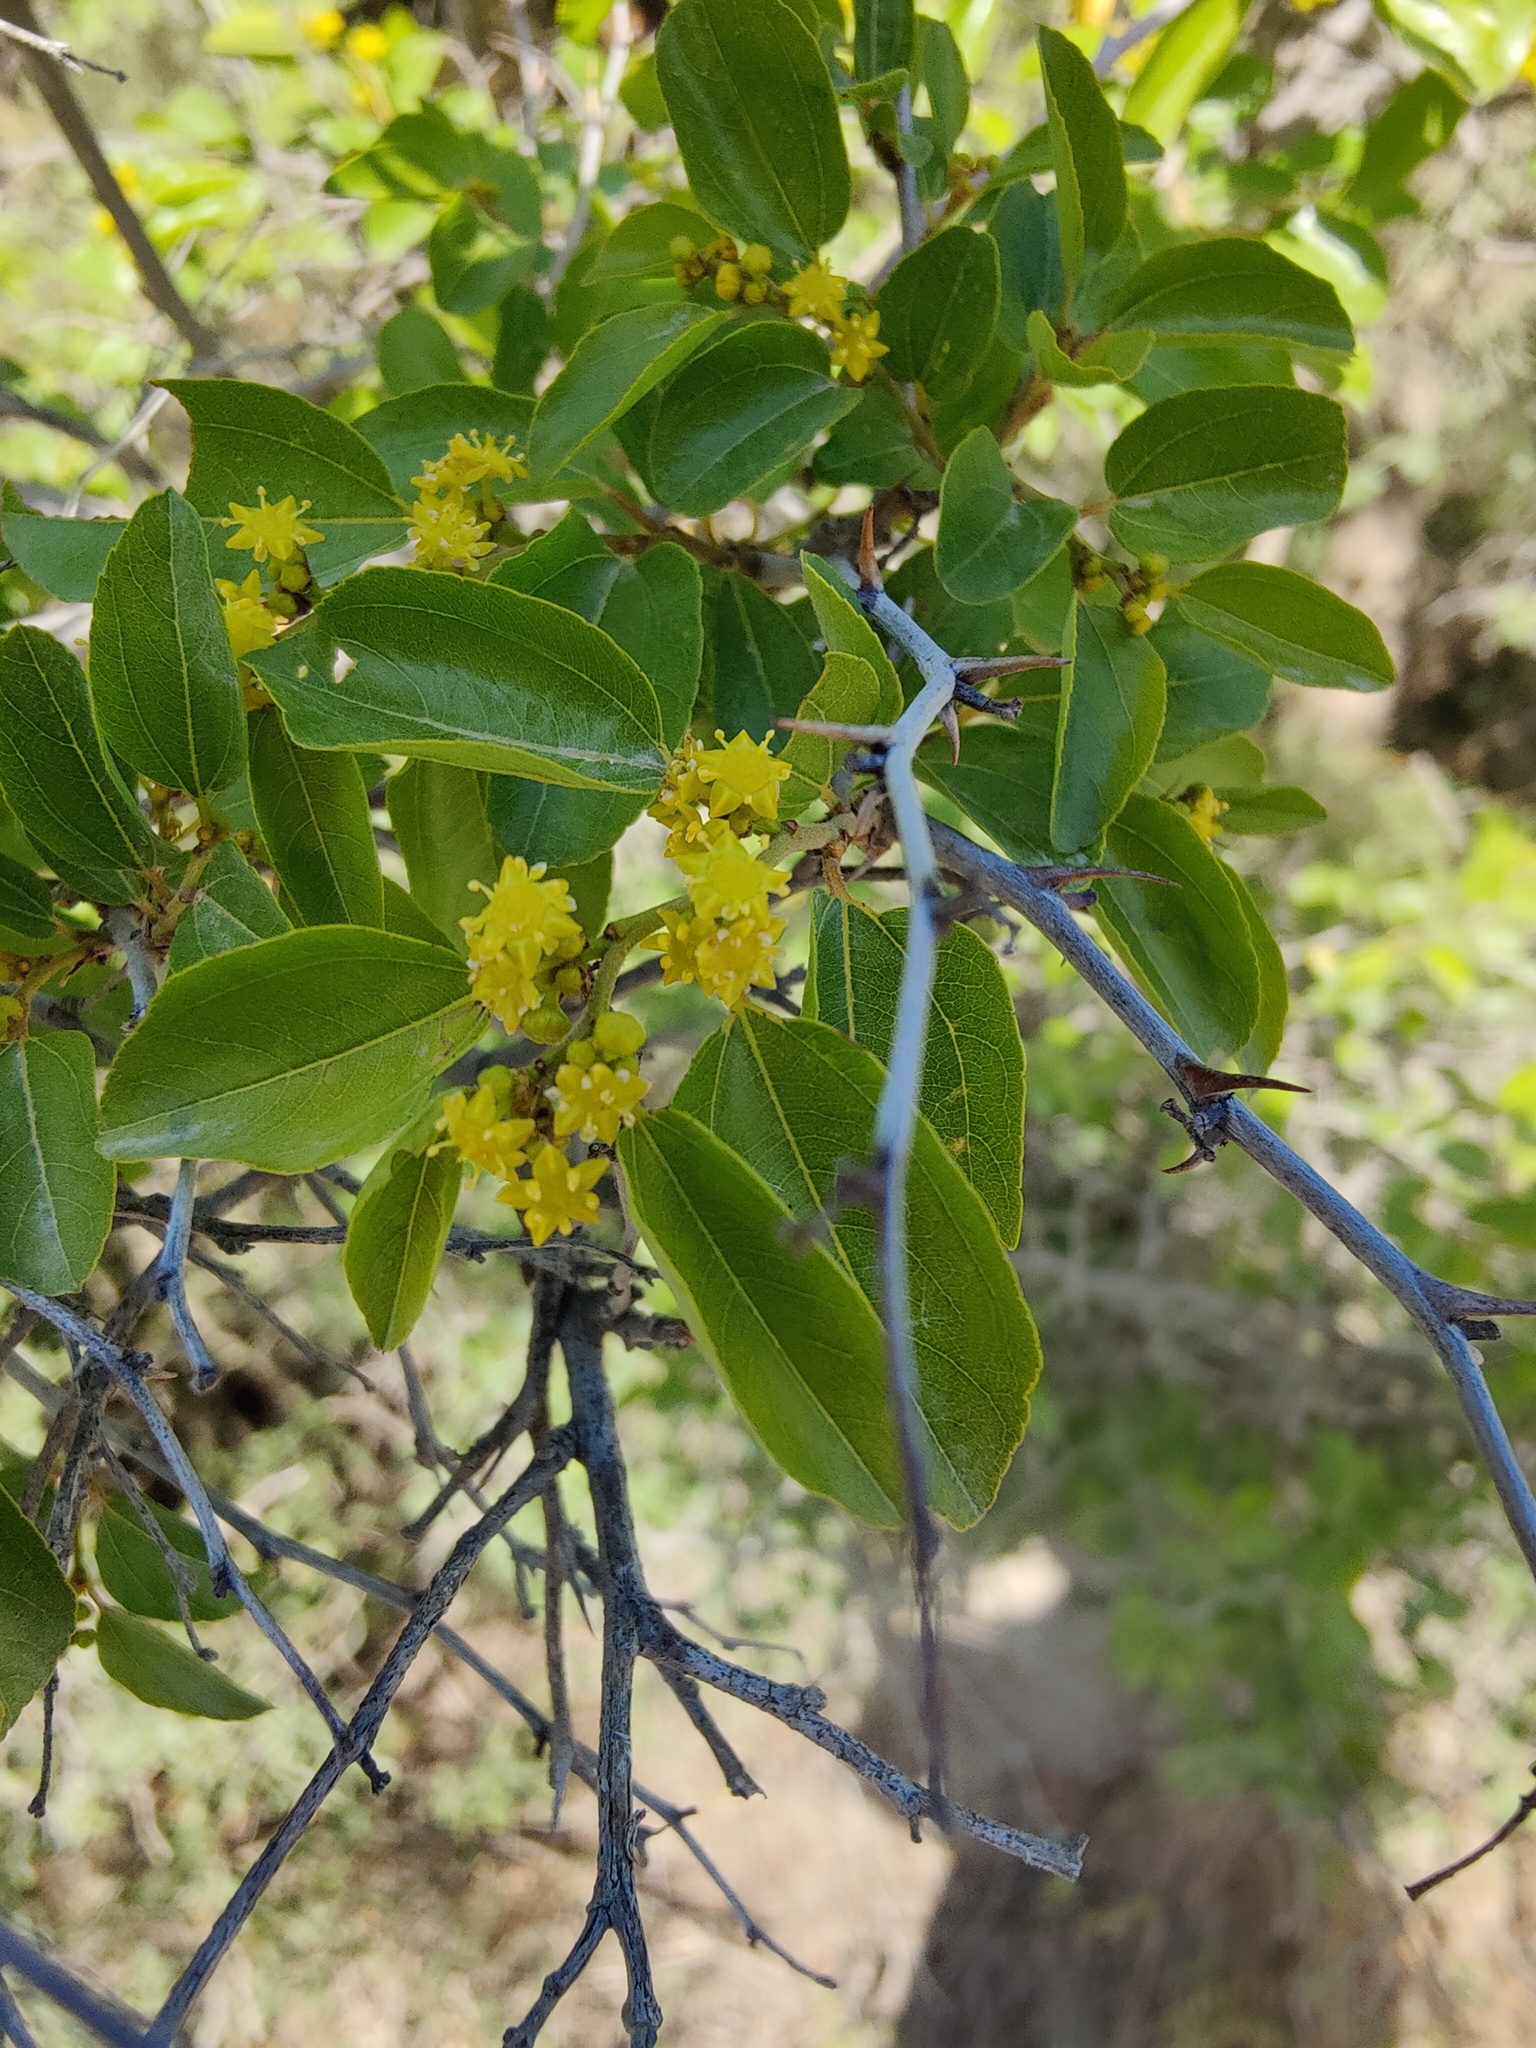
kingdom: Plantae
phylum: Tracheophyta
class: Magnoliopsida
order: Rosales
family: Rhamnaceae
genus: Paliurus
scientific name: Paliurus spina-christi
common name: Jeruselem thorn
